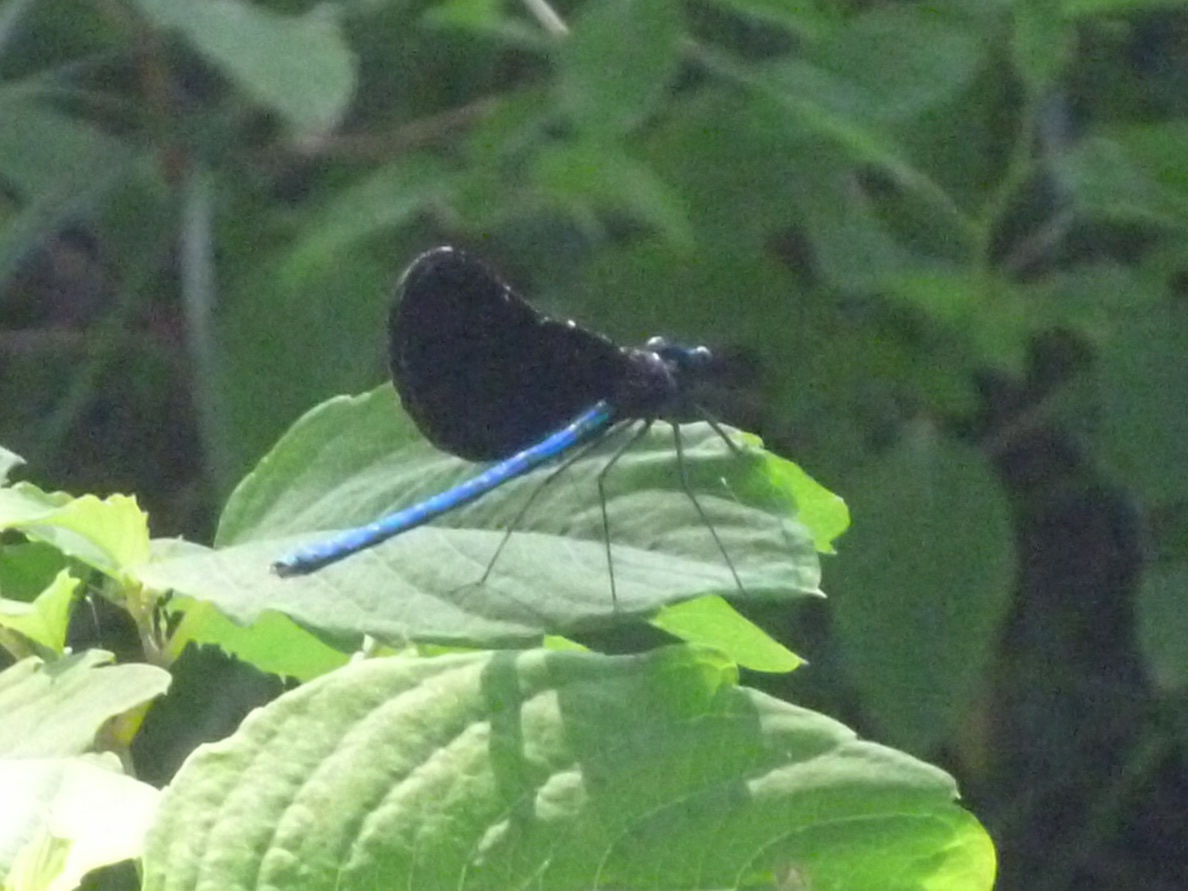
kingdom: Animalia
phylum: Arthropoda
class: Insecta
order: Odonata
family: Calopterygidae
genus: Calopteryx
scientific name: Calopteryx maculata
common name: Ebony jewelwing
